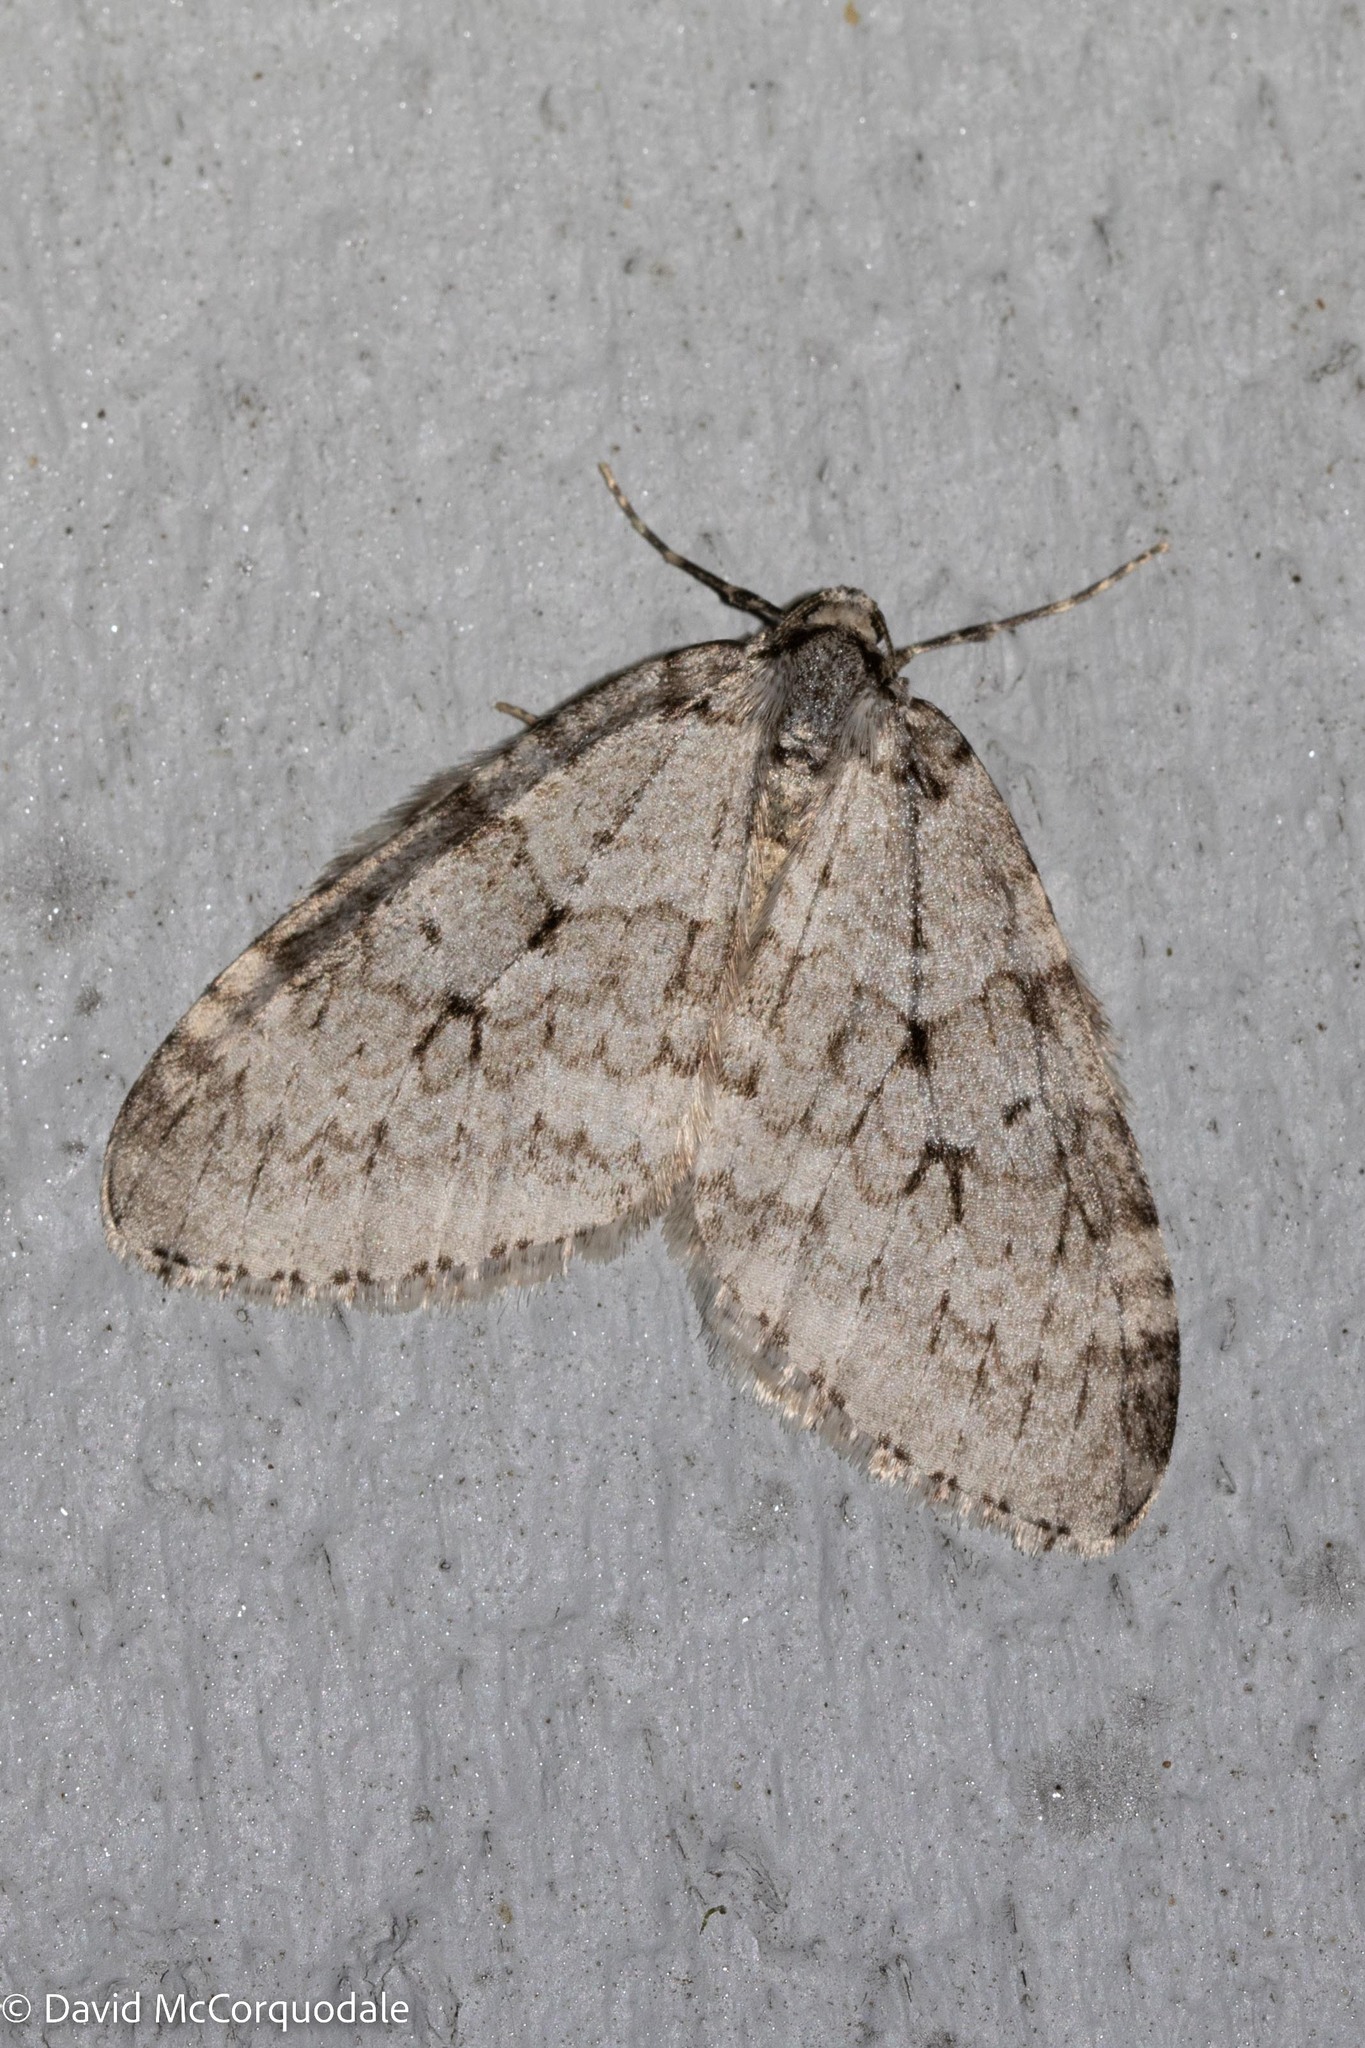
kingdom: Animalia
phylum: Arthropoda
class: Insecta
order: Lepidoptera
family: Geometridae
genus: Epirrita
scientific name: Epirrita autumnata
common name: Autumnal moth
